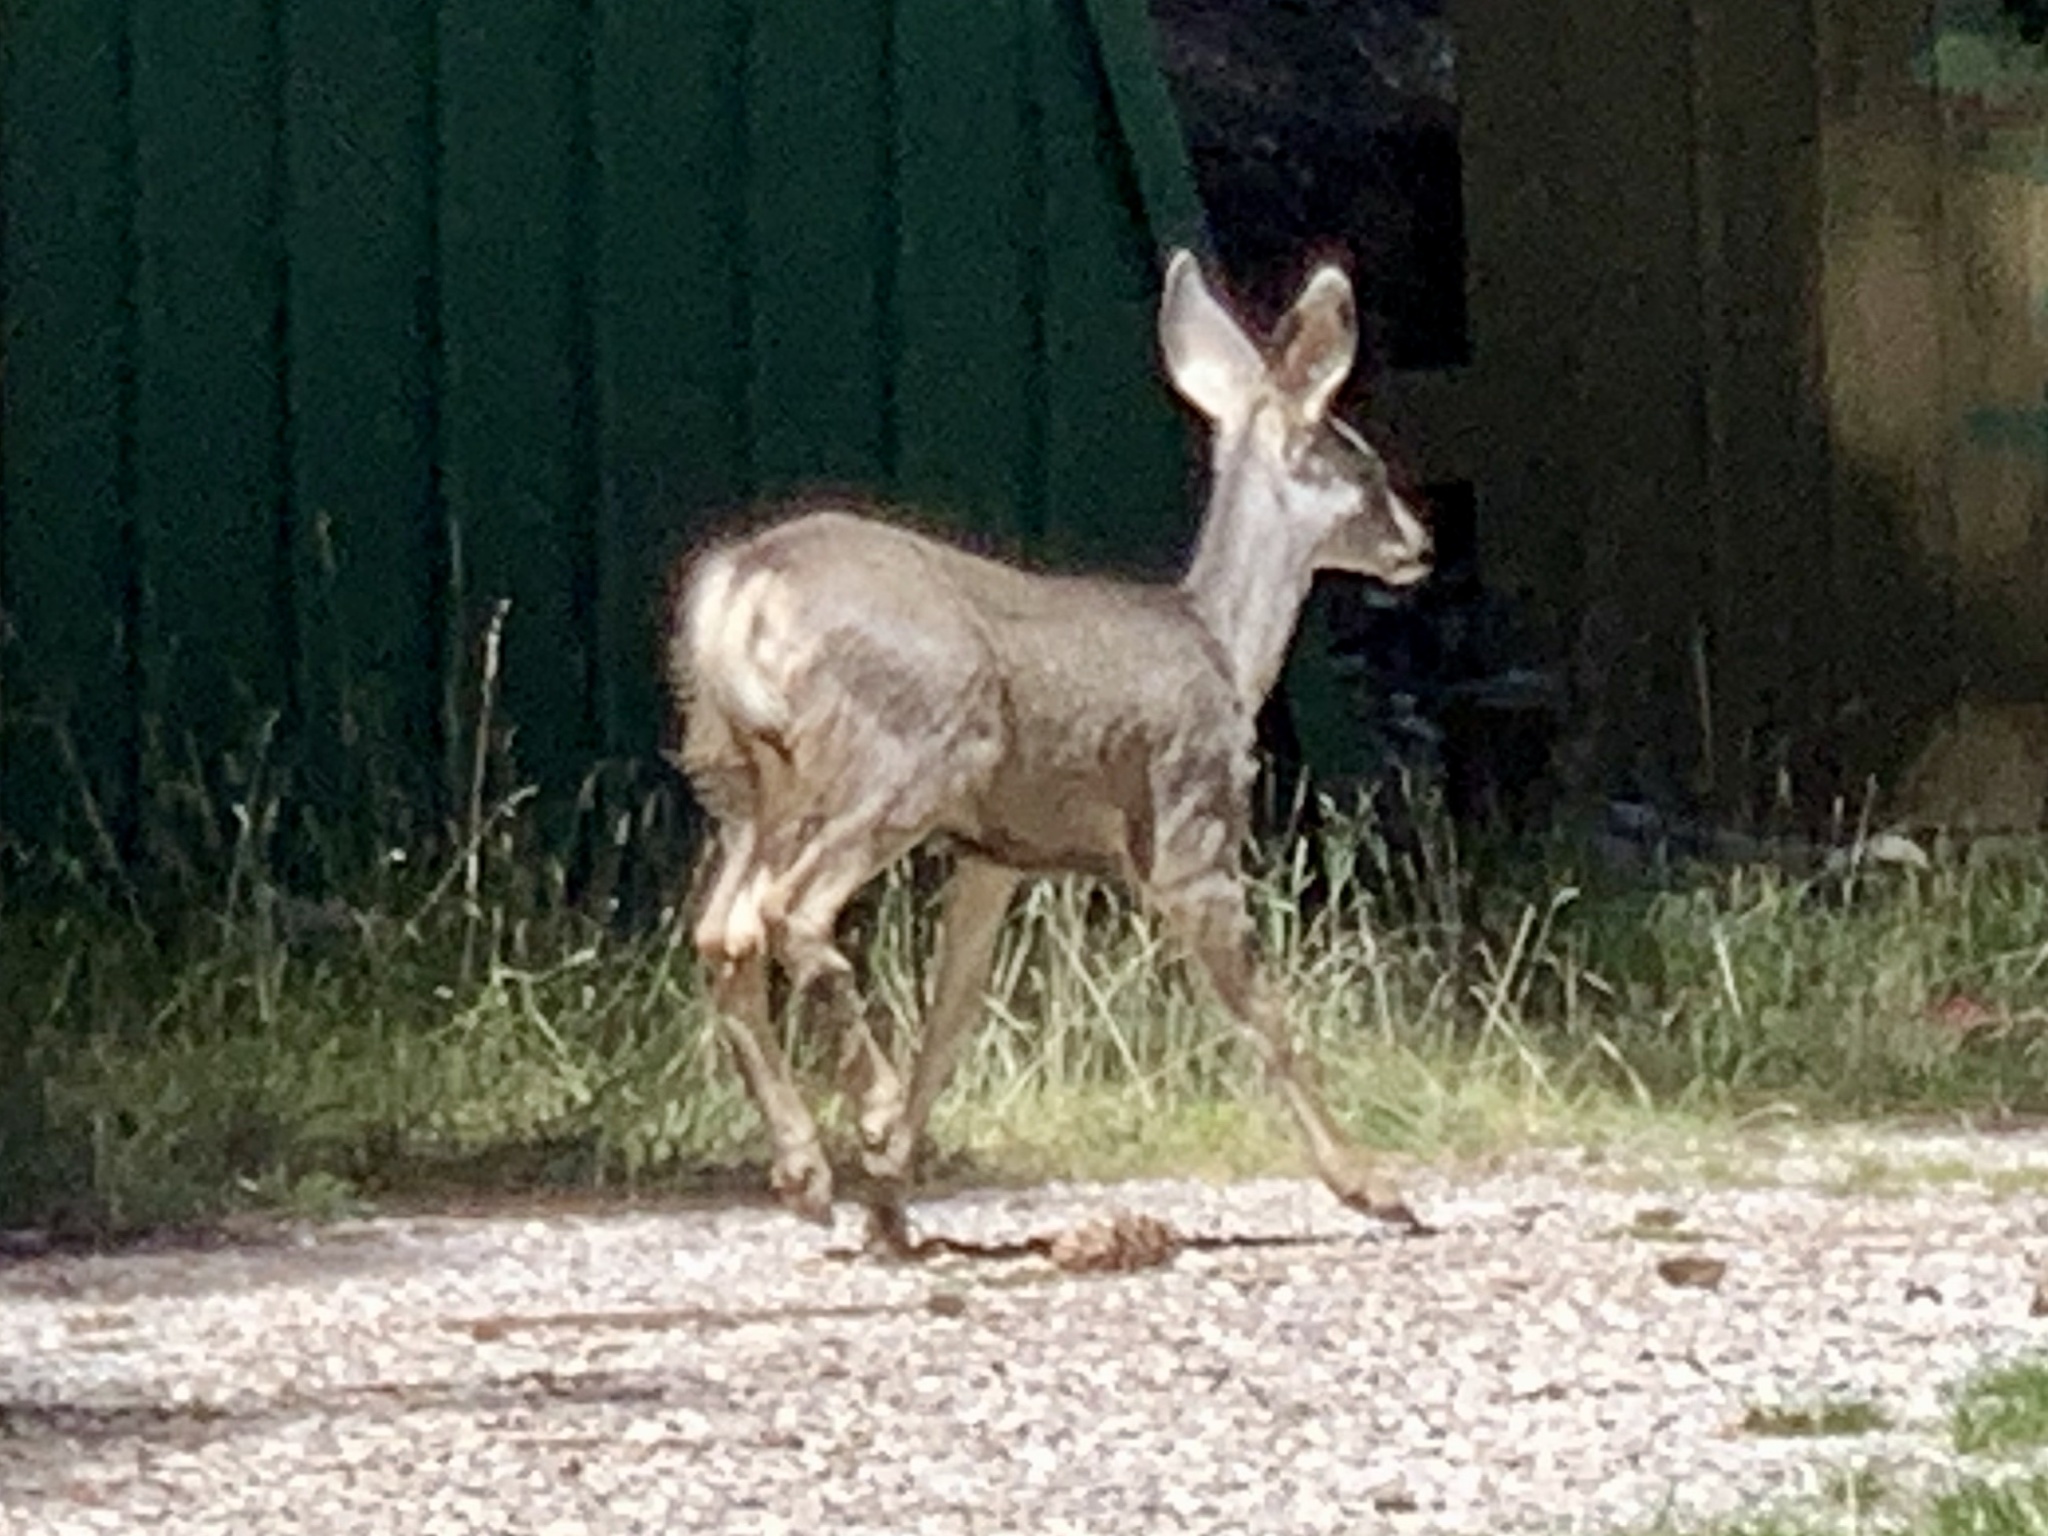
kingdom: Animalia
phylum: Chordata
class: Mammalia
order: Artiodactyla
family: Cervidae
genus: Odocoileus
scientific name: Odocoileus hemionus
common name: Mule deer
